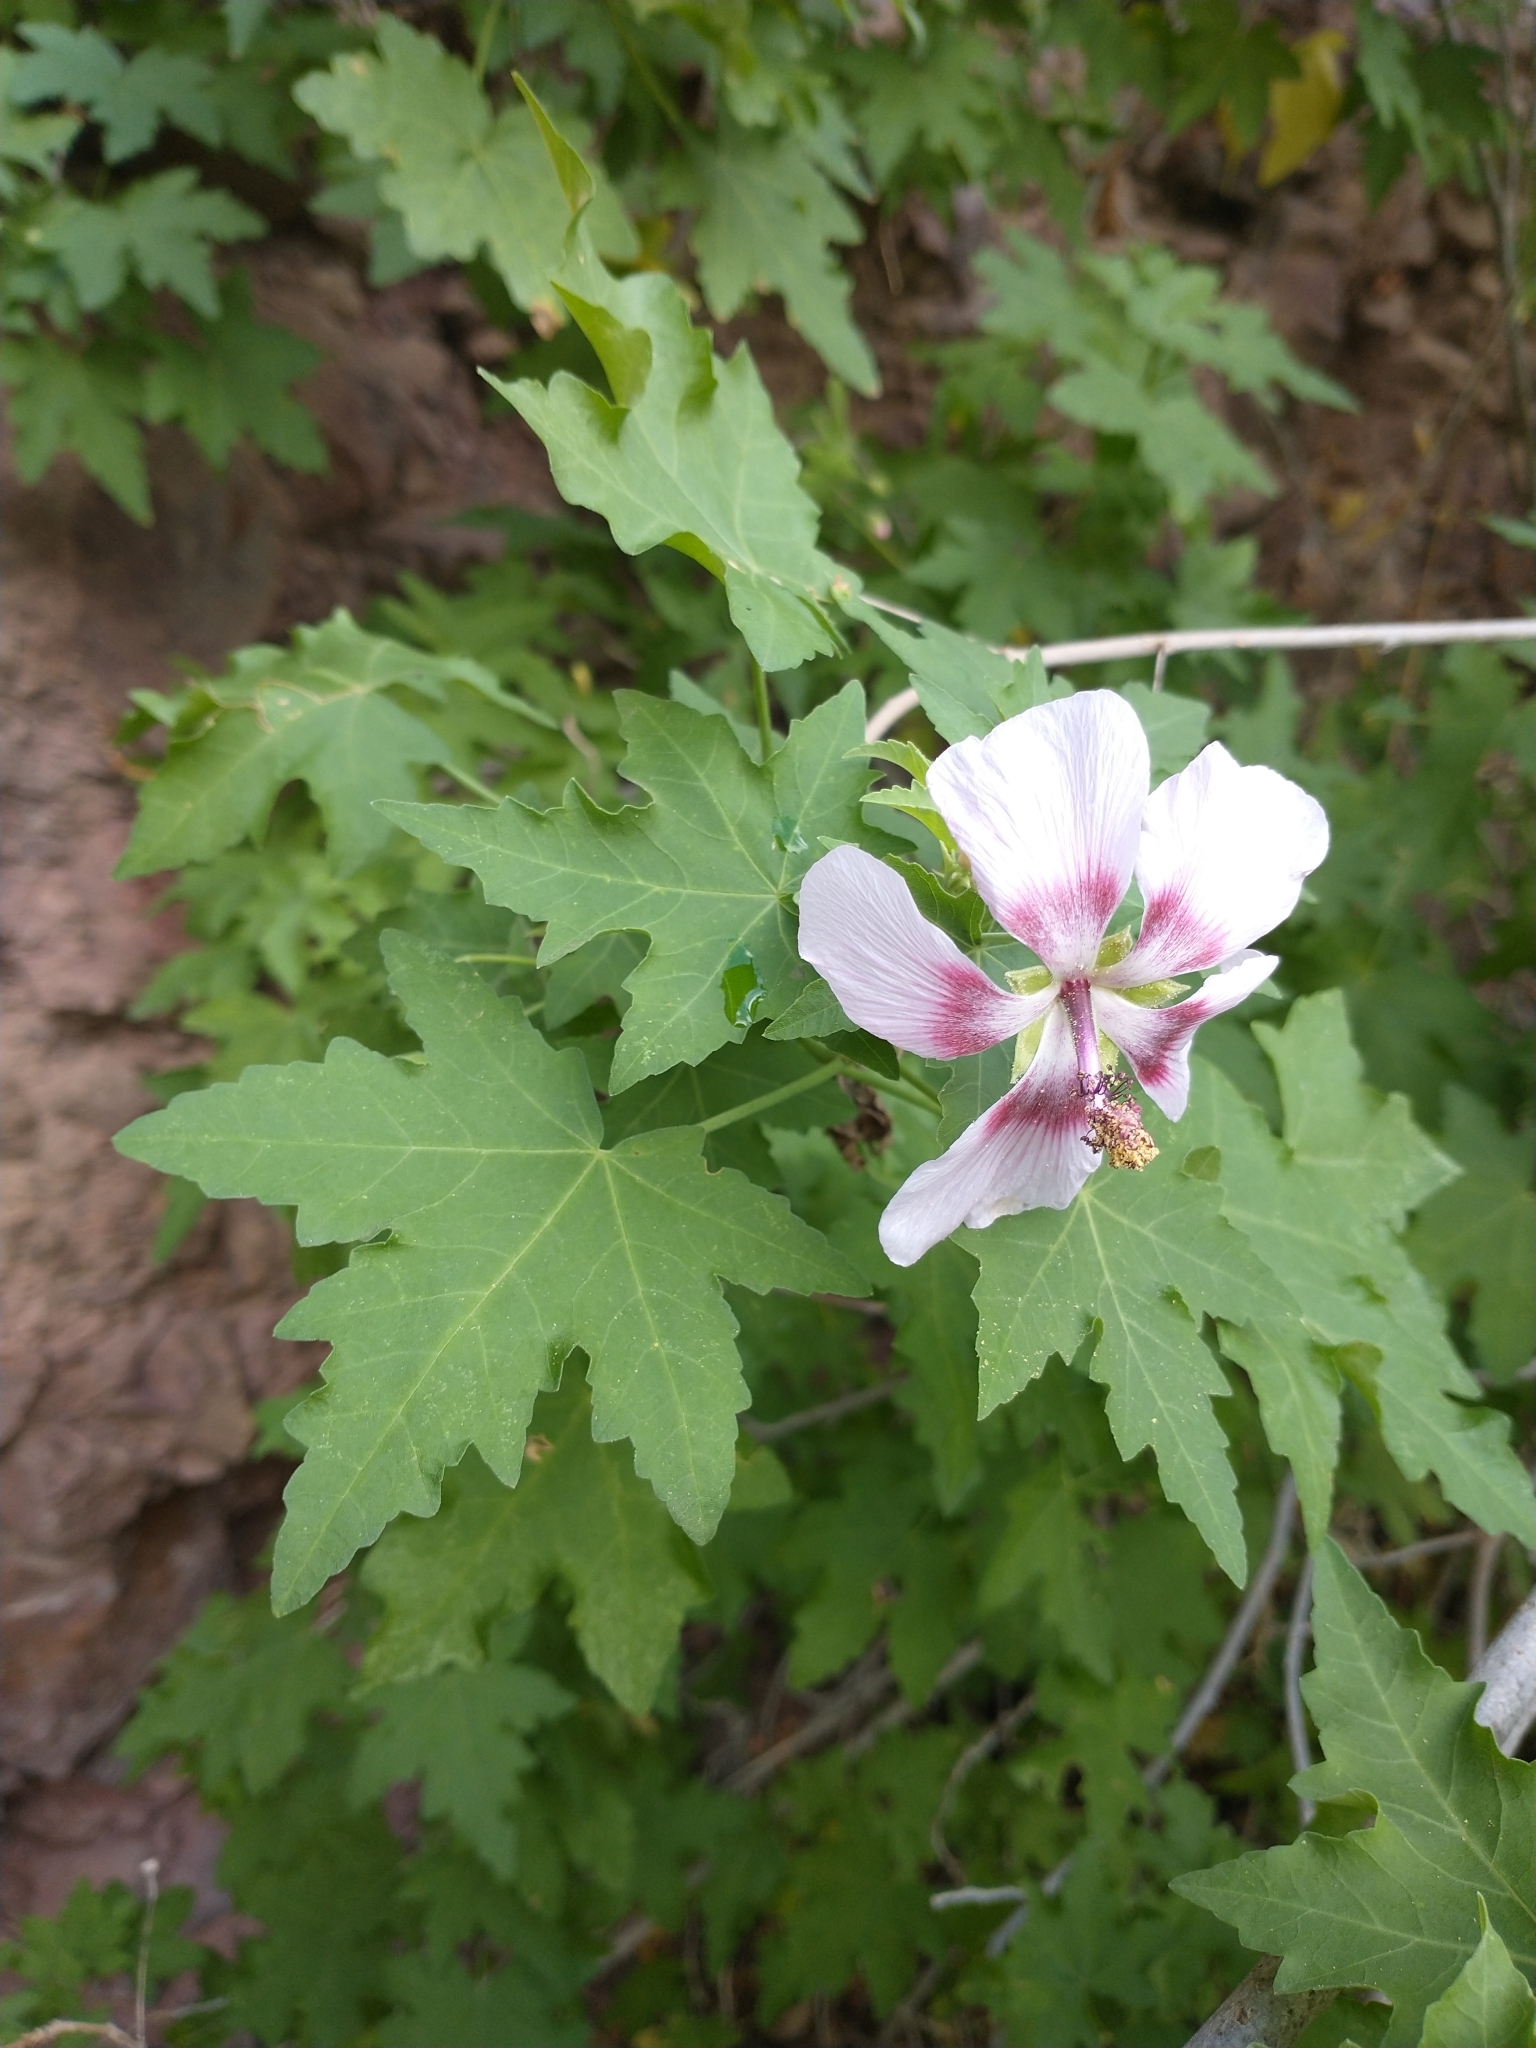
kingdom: Plantae
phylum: Tracheophyta
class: Magnoliopsida
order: Malvales
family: Malvaceae
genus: Malva
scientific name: Malva acerifolia
